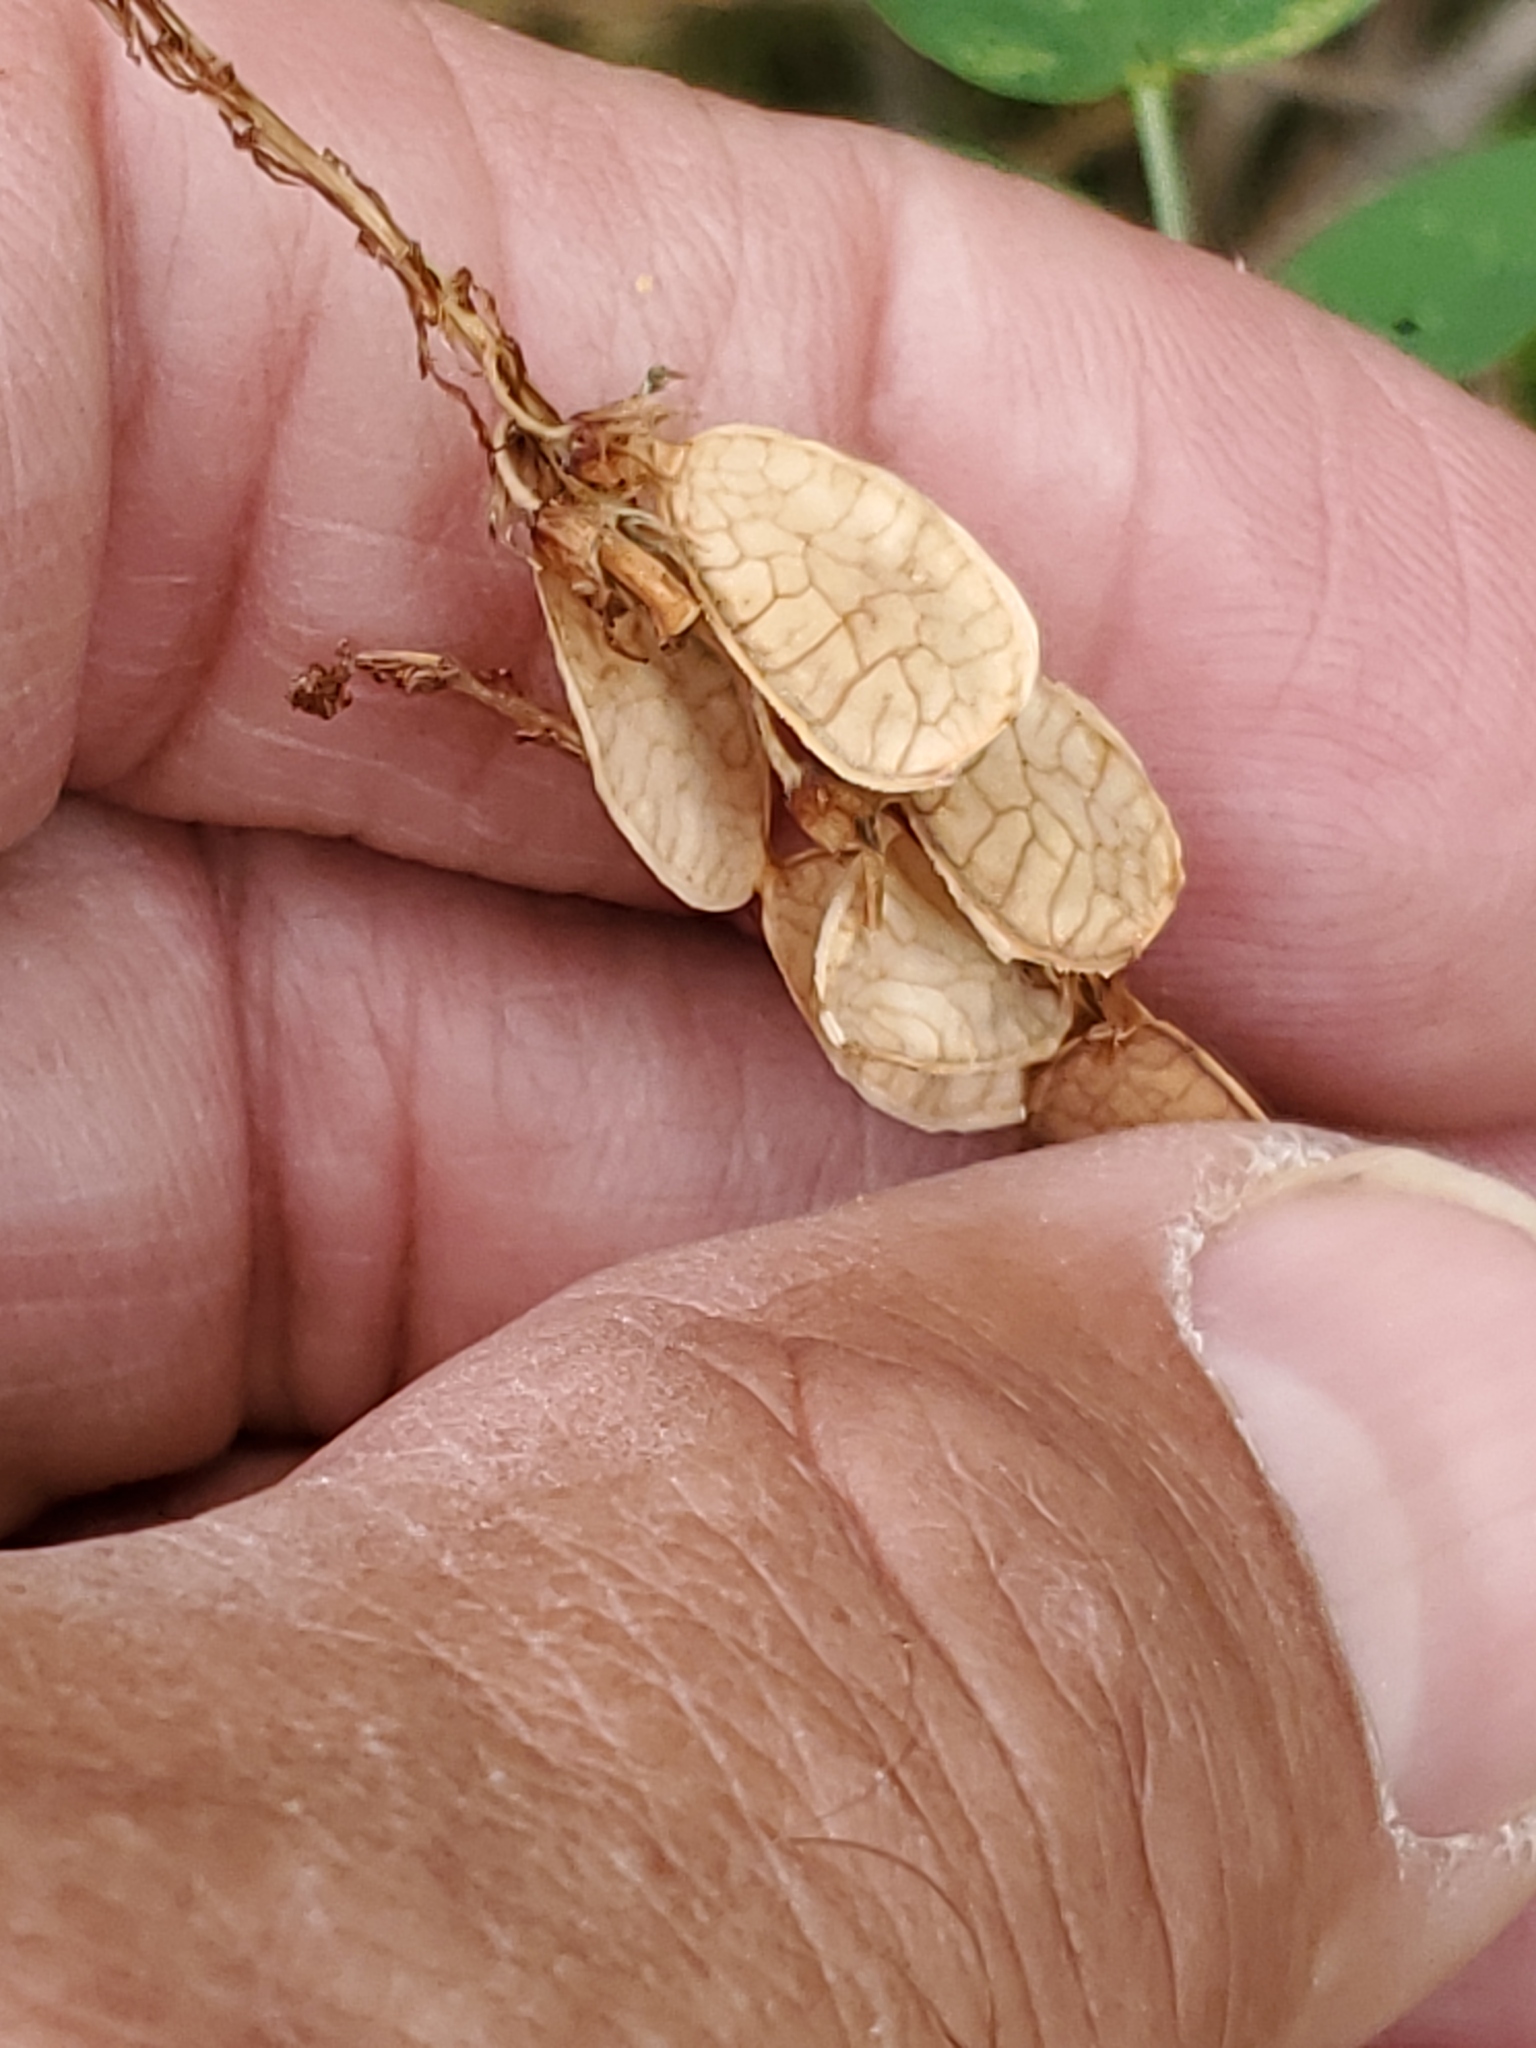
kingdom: Plantae
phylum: Tracheophyta
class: Magnoliopsida
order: Fabales
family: Fabaceae
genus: Hedysarum
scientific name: Hedysarum sulphurescens
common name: Sulphur hedysarum
